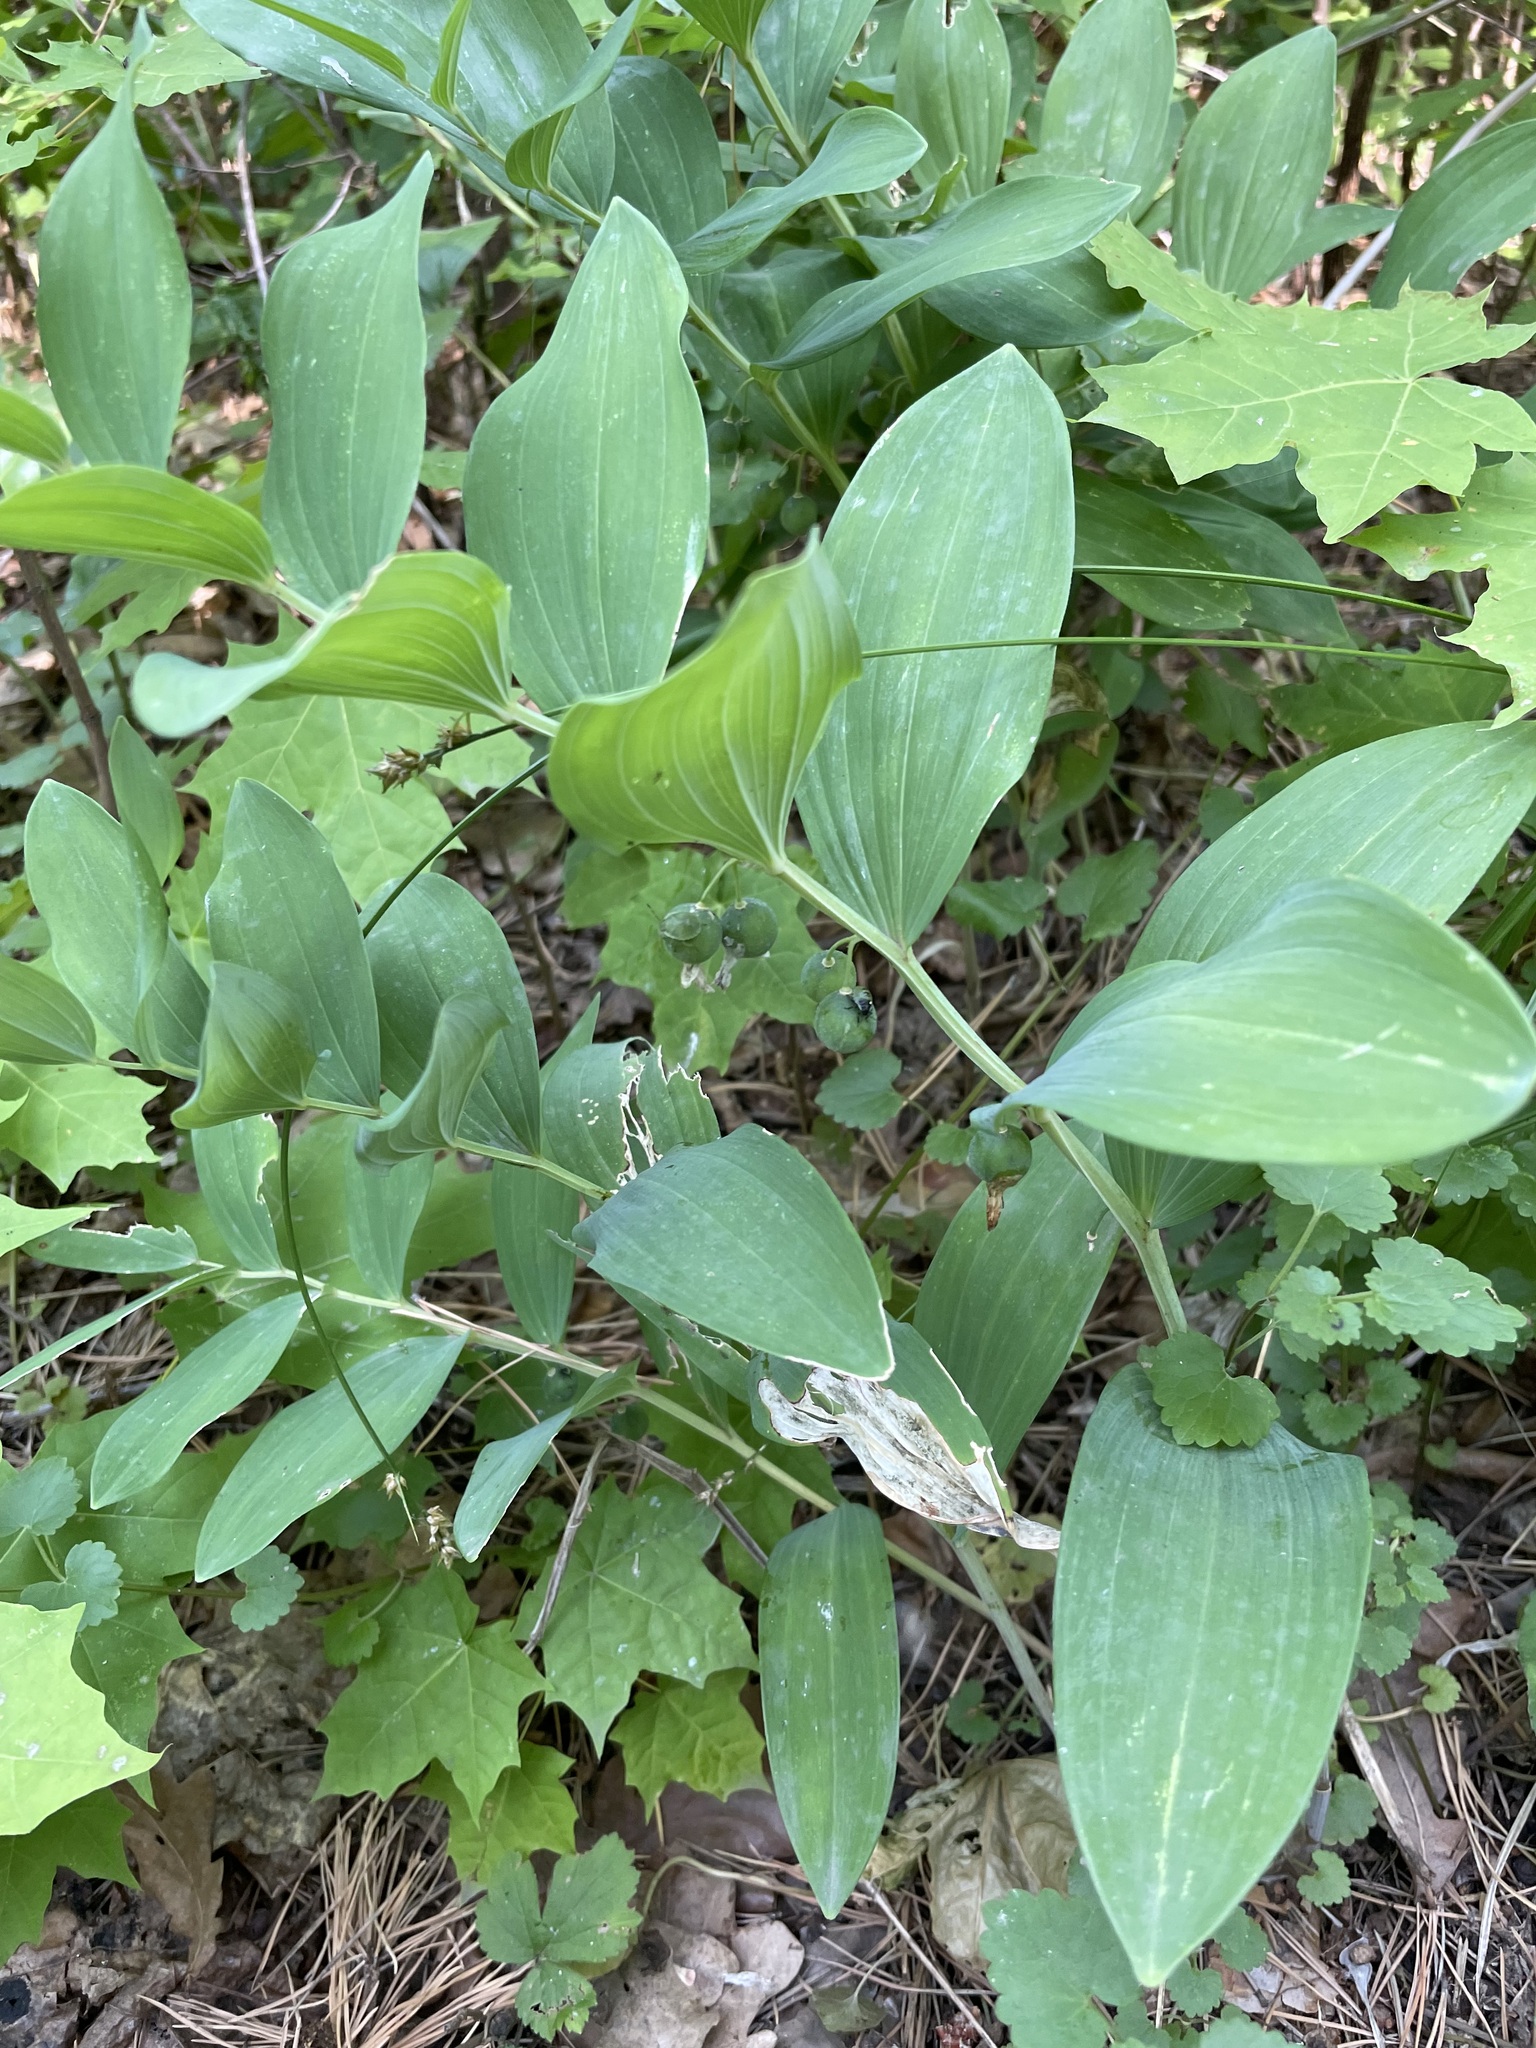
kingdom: Plantae
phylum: Tracheophyta
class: Liliopsida
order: Asparagales
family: Asparagaceae
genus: Polygonatum
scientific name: Polygonatum odoratum
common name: Angular solomon's-seal
